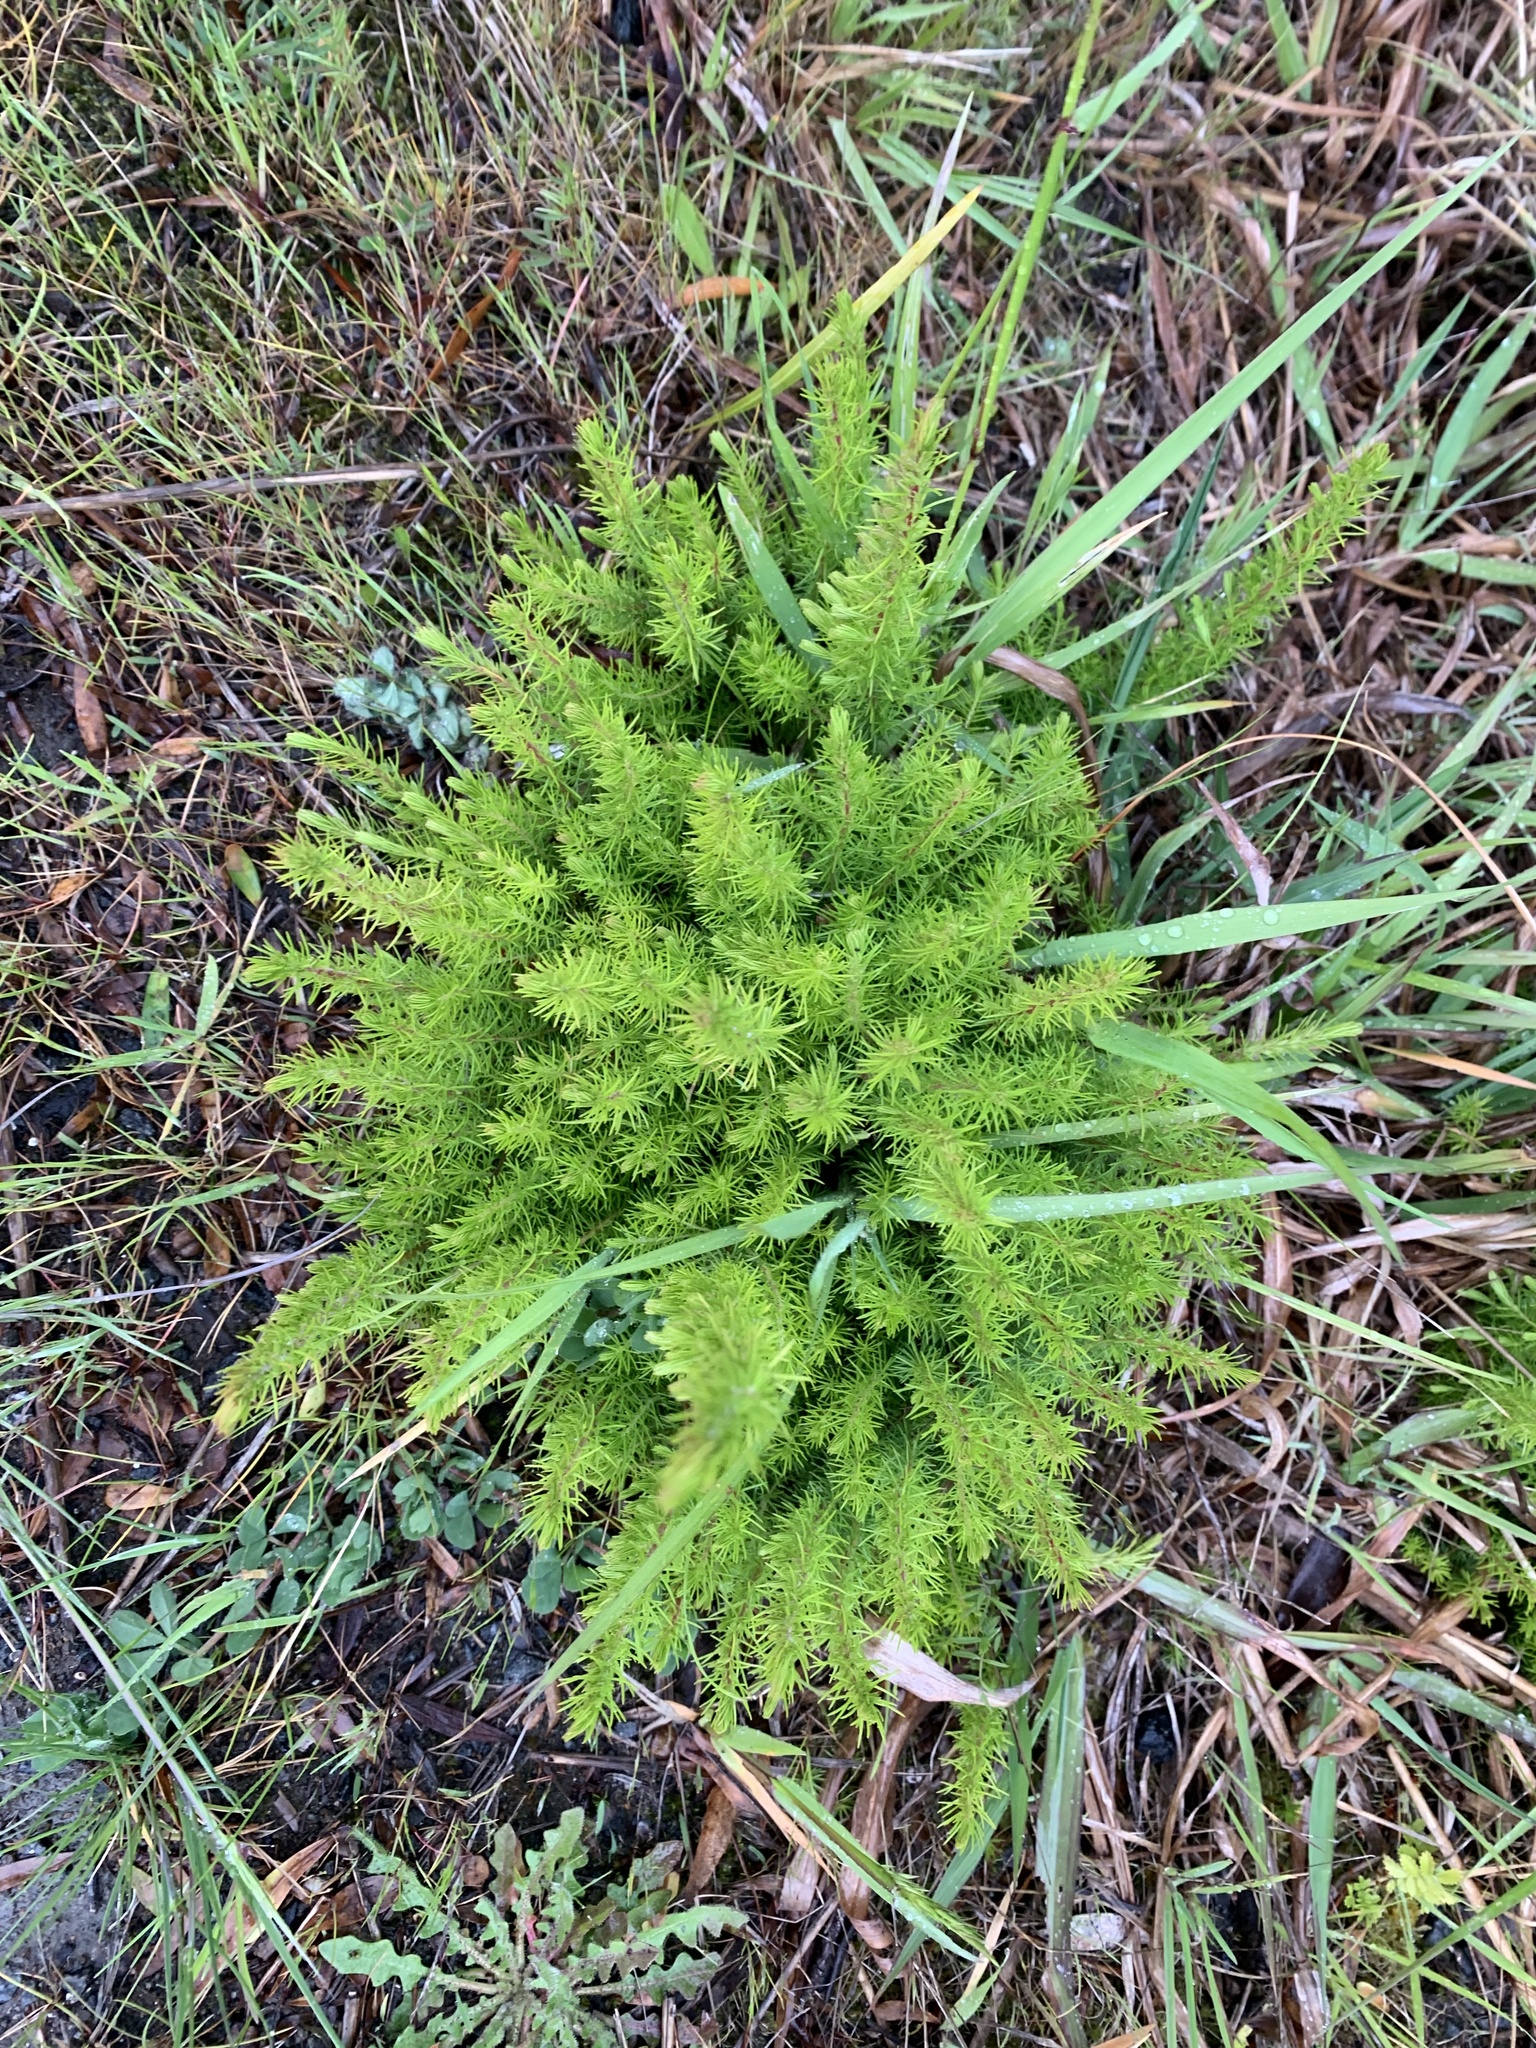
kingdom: Plantae
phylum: Tracheophyta
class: Magnoliopsida
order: Ericales
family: Ericaceae
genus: Erica
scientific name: Erica lusitanica
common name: Spanish heath
